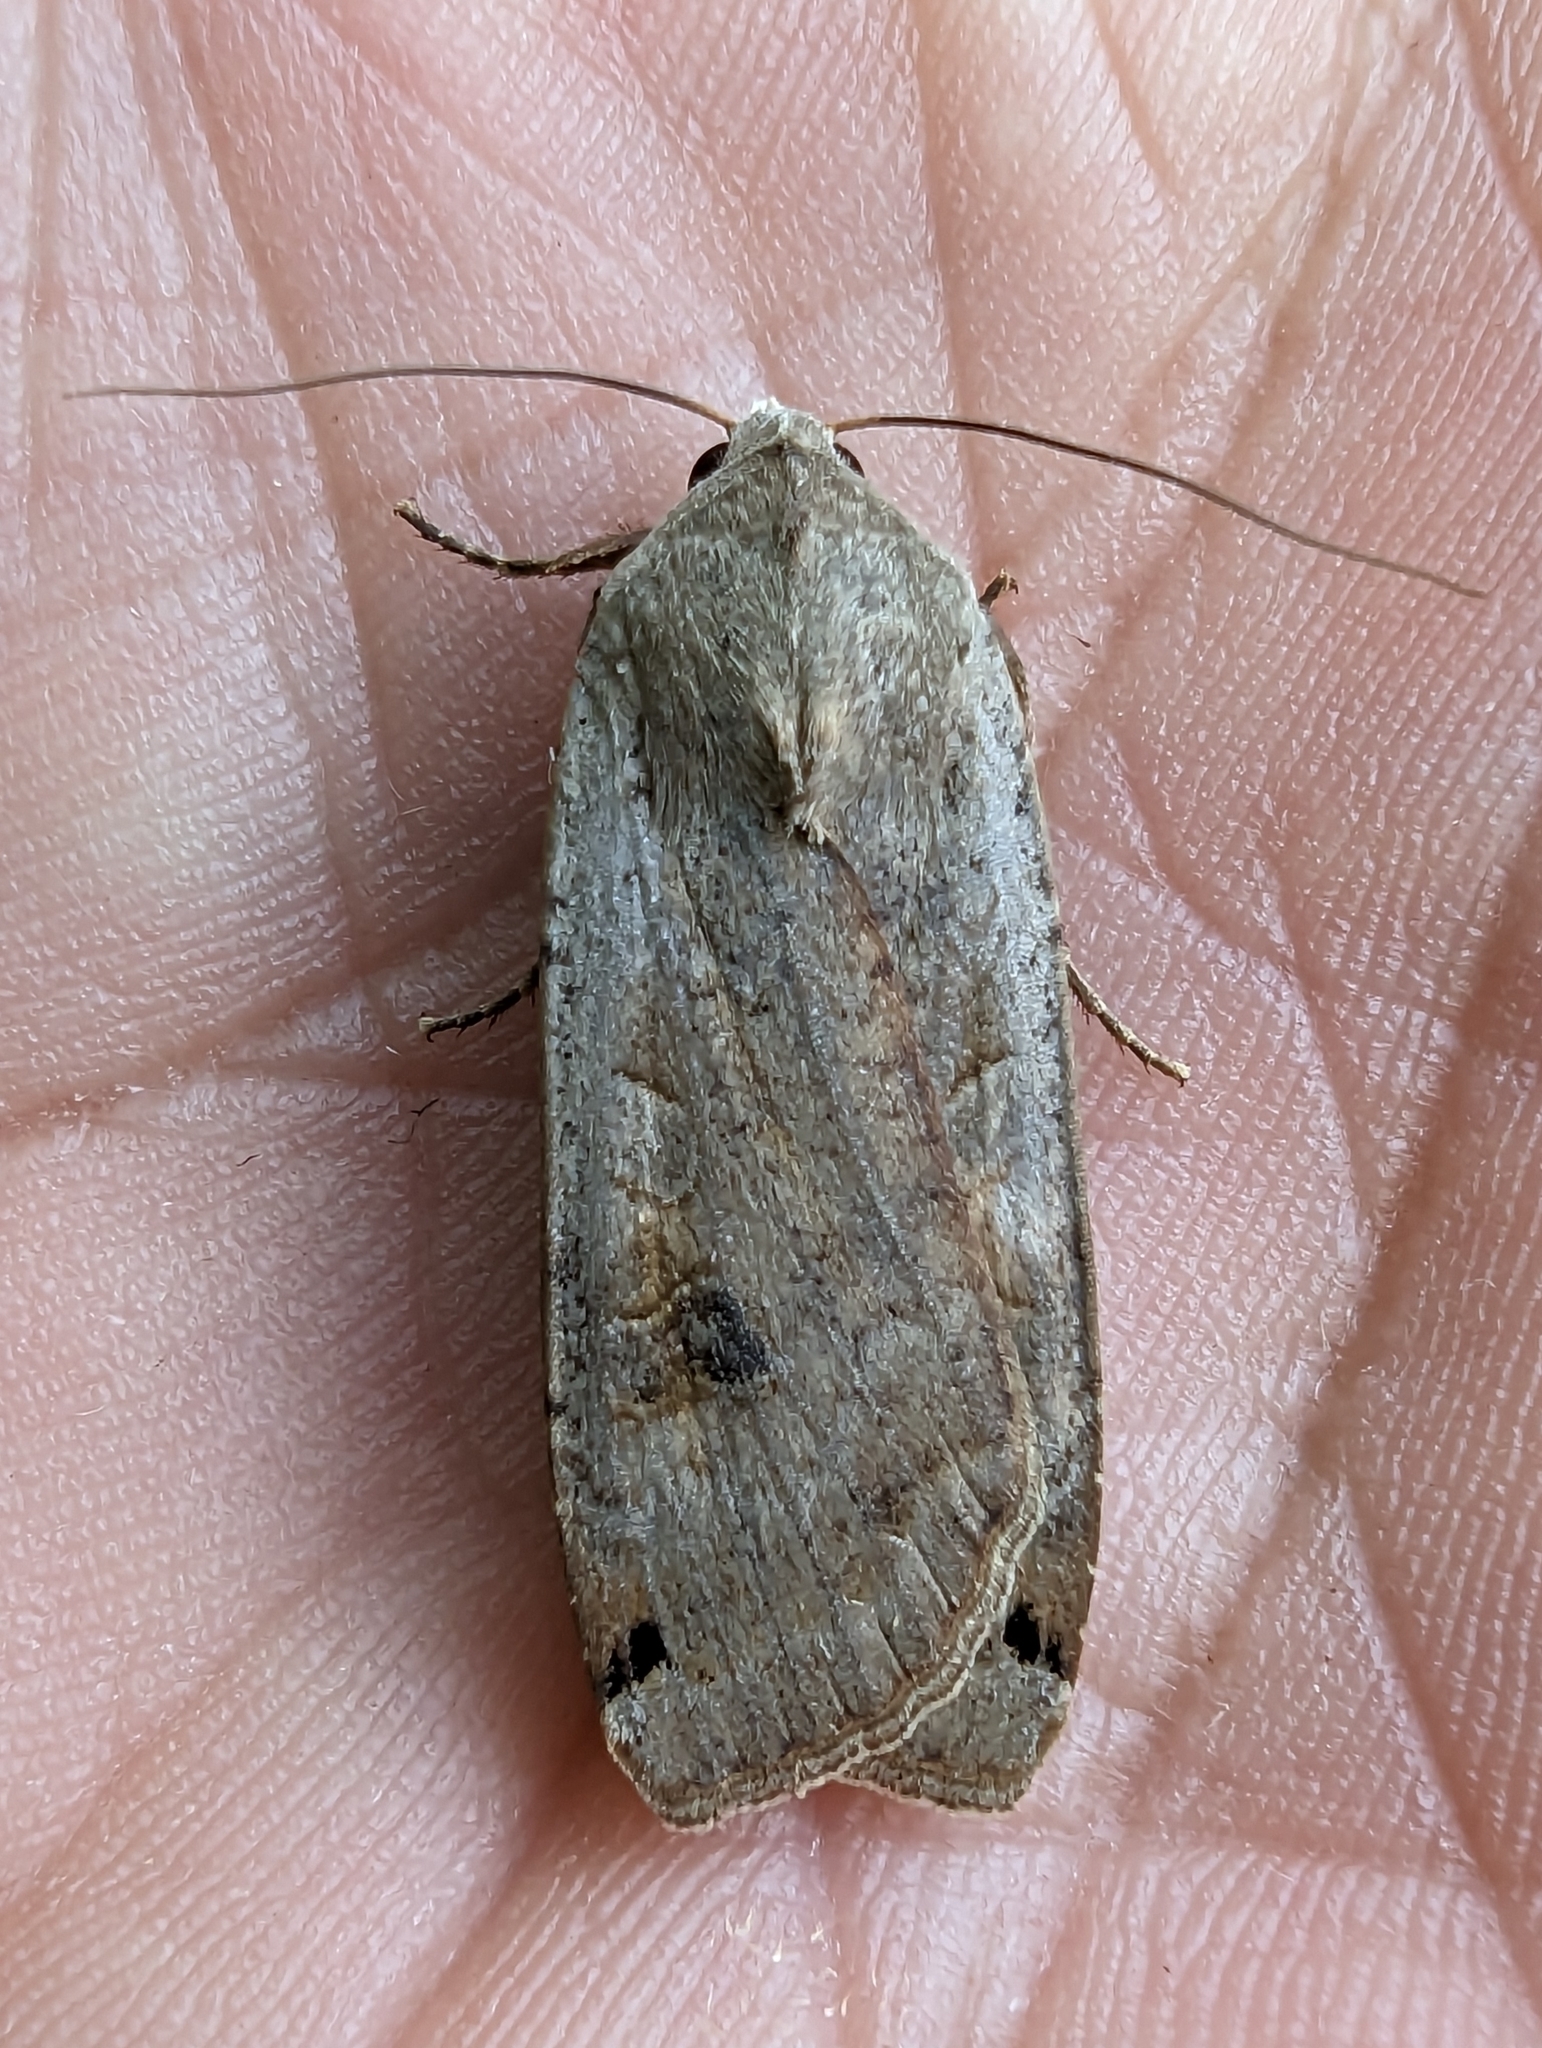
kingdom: Animalia
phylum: Arthropoda
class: Insecta
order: Lepidoptera
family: Noctuidae
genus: Noctua
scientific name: Noctua pronuba
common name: Large yellow underwing
